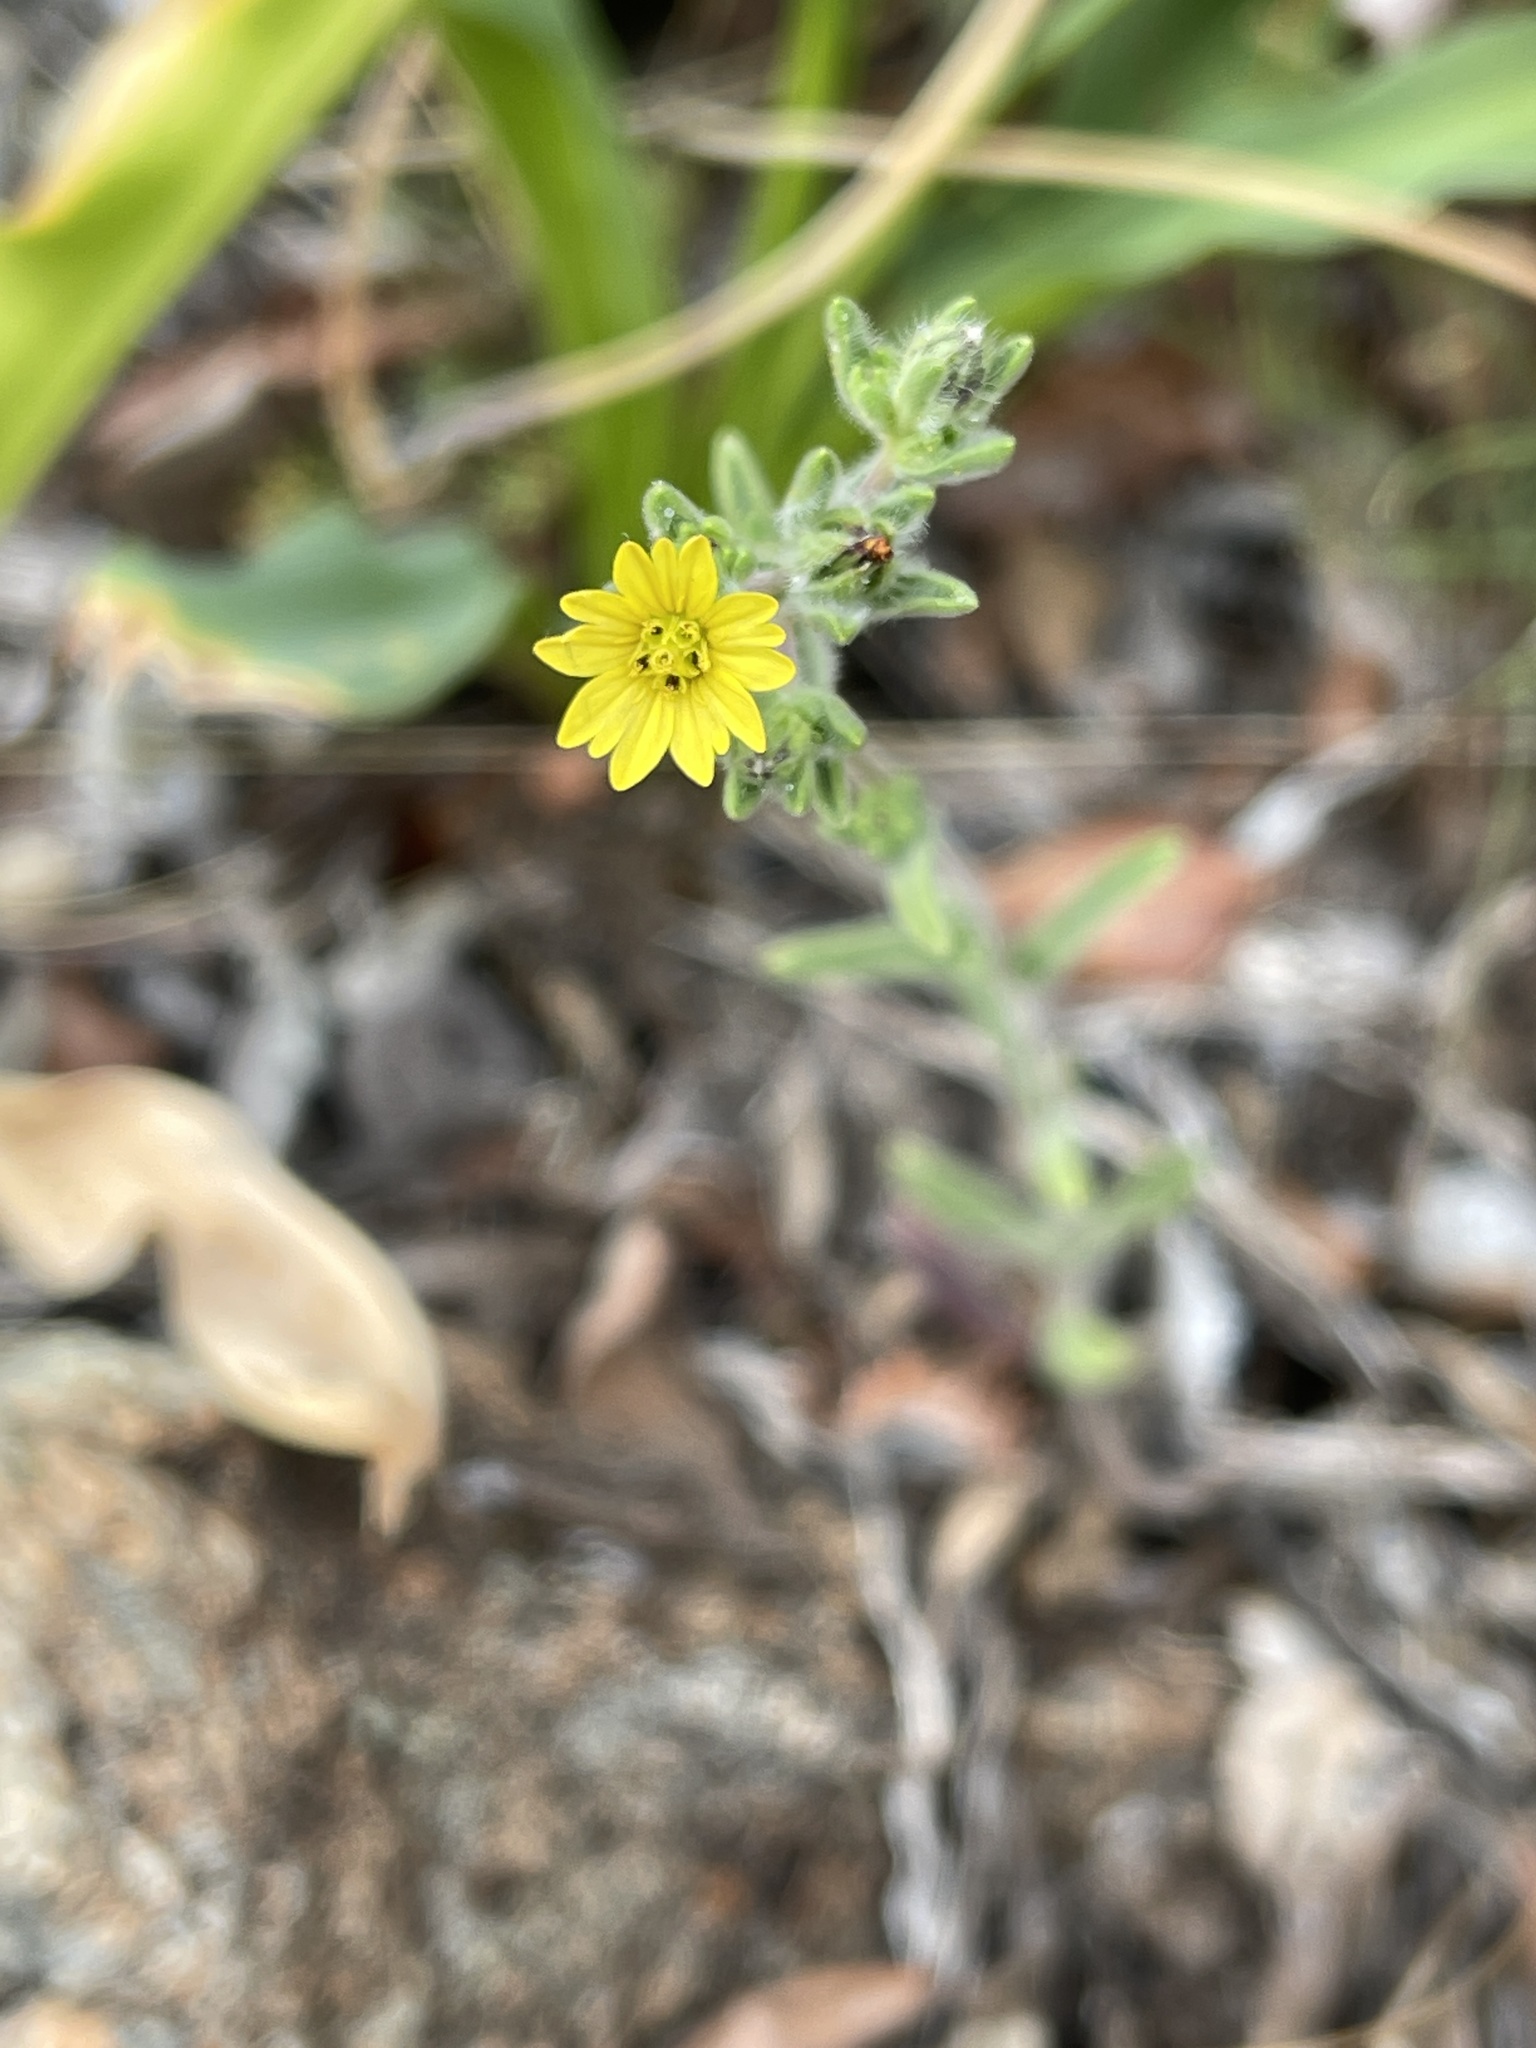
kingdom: Plantae
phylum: Tracheophyta
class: Magnoliopsida
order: Asterales
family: Asteraceae
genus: Lagophylla
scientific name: Lagophylla ramosissima
